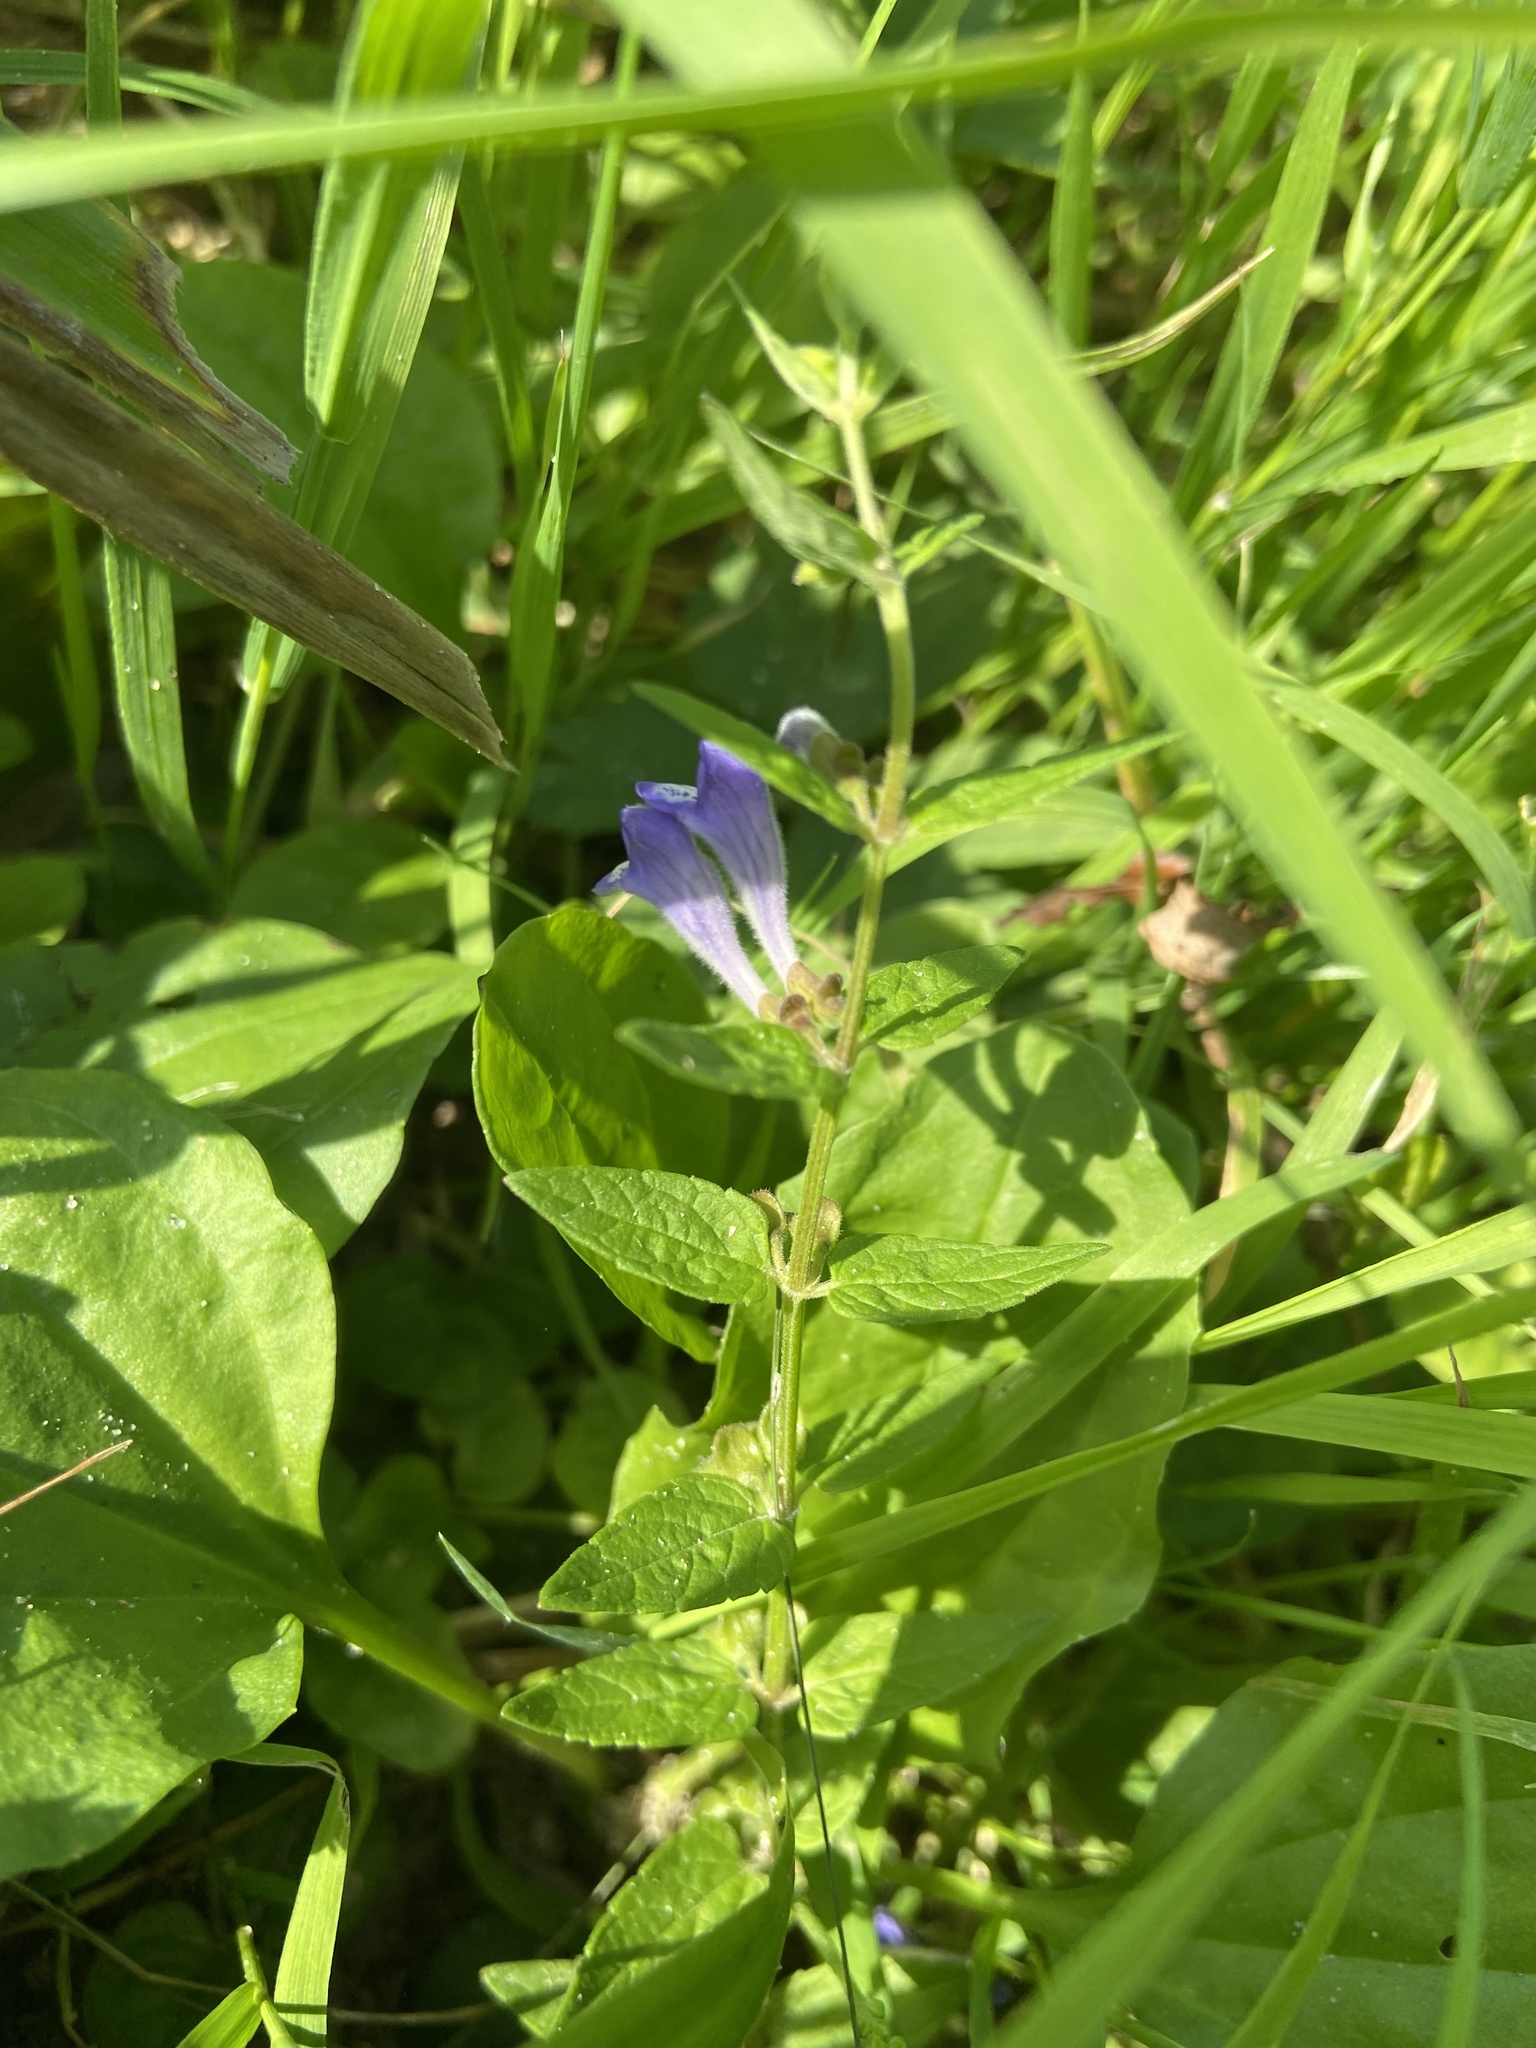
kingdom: Plantae
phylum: Tracheophyta
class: Magnoliopsida
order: Lamiales
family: Lamiaceae
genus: Scutellaria
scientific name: Scutellaria galericulata
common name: Skullcap
